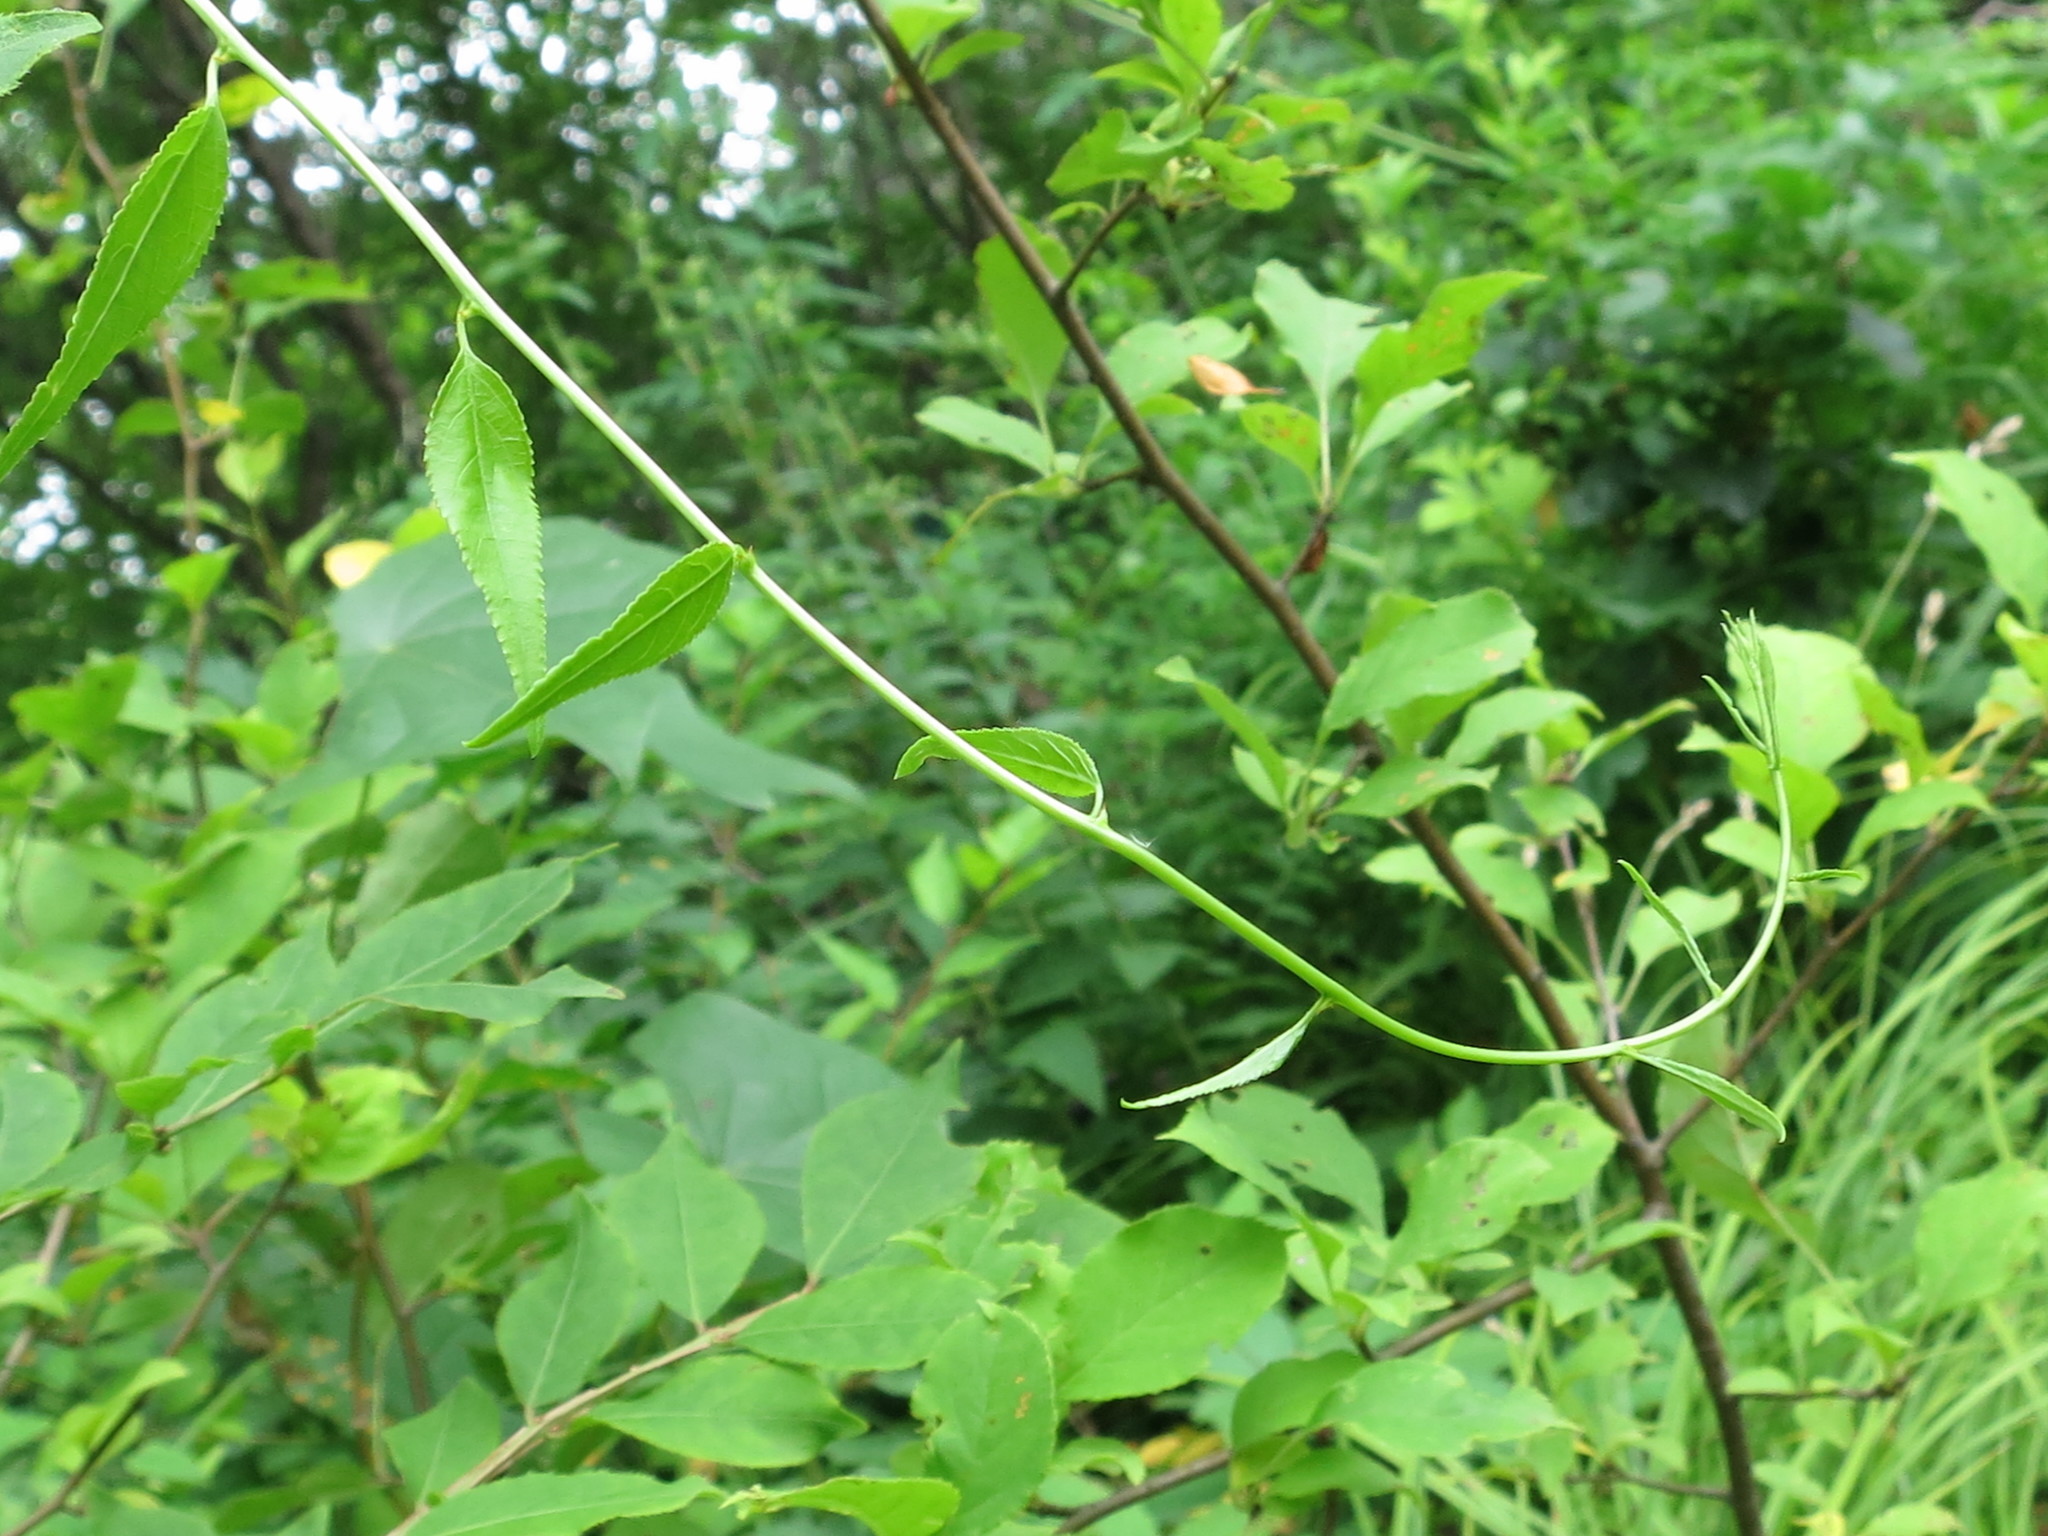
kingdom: Plantae
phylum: Tracheophyta
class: Magnoliopsida
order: Celastrales
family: Celastraceae
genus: Celastrus
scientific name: Celastrus orbiculatus
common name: Oriental bittersweet
